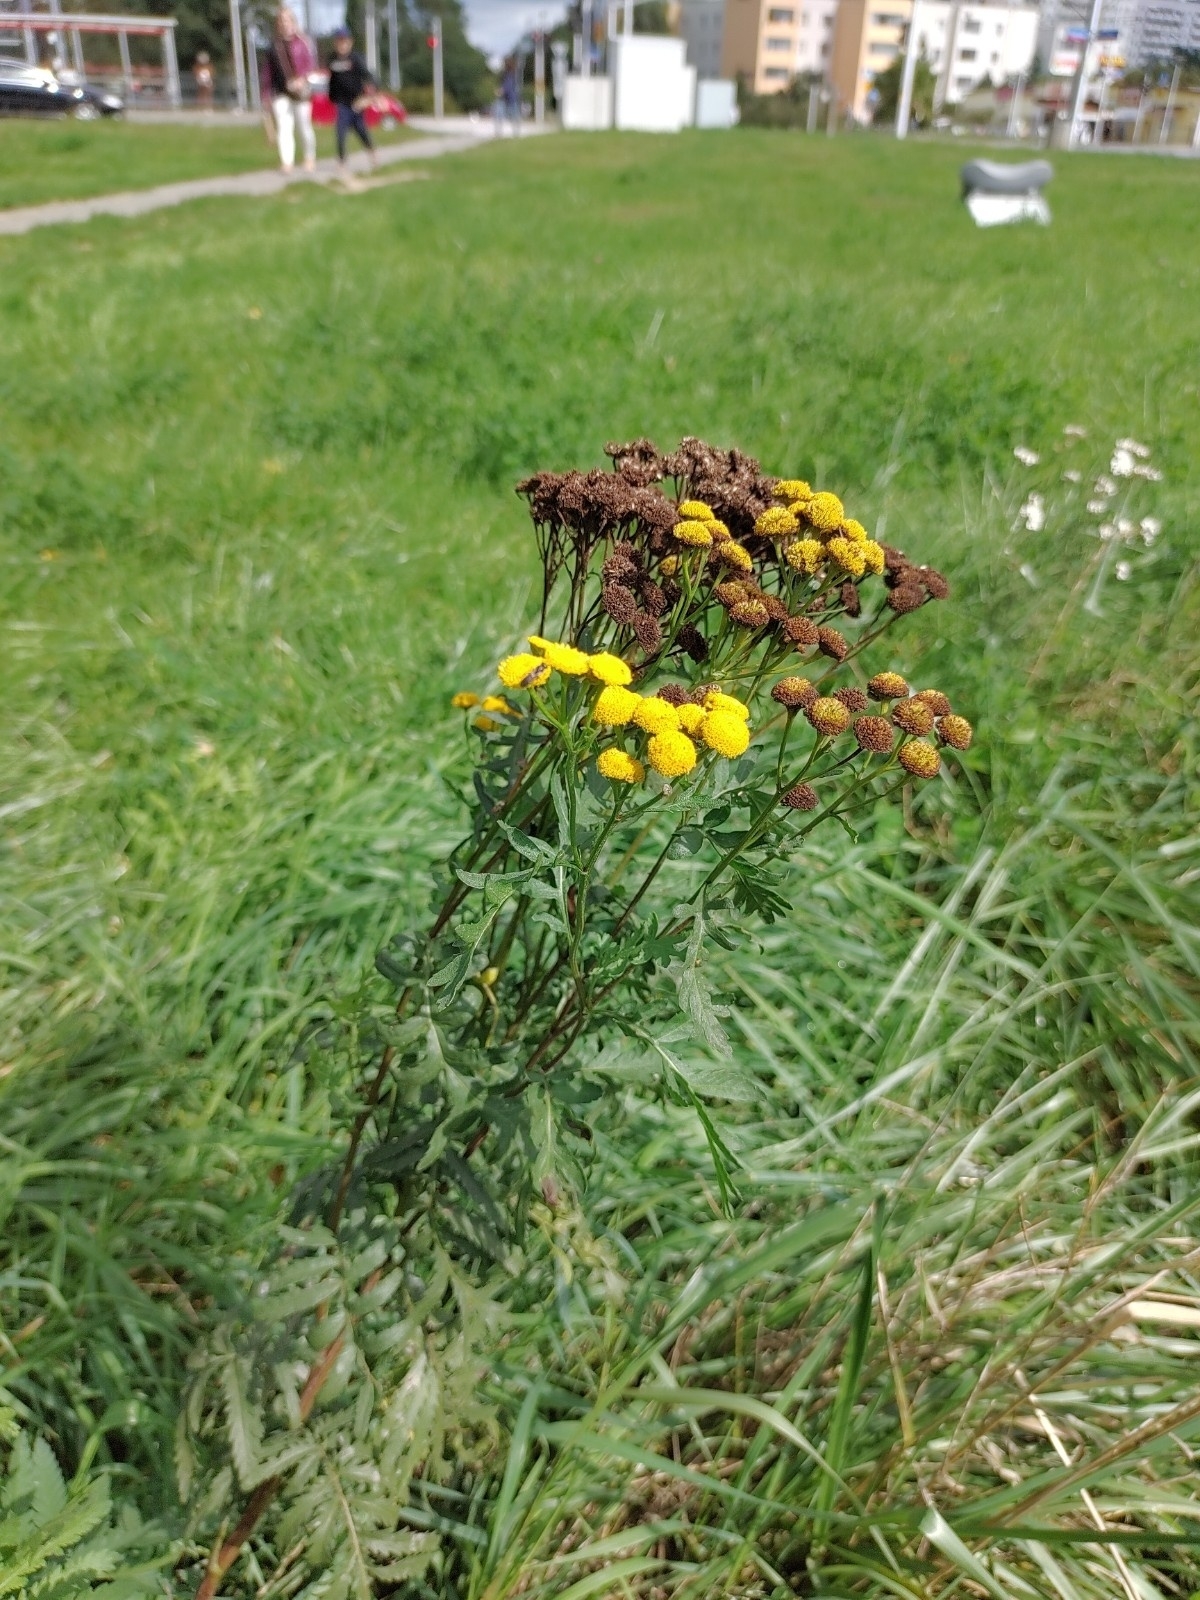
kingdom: Plantae
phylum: Tracheophyta
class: Magnoliopsida
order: Asterales
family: Asteraceae
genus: Tanacetum
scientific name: Tanacetum vulgare
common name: Common tansy
